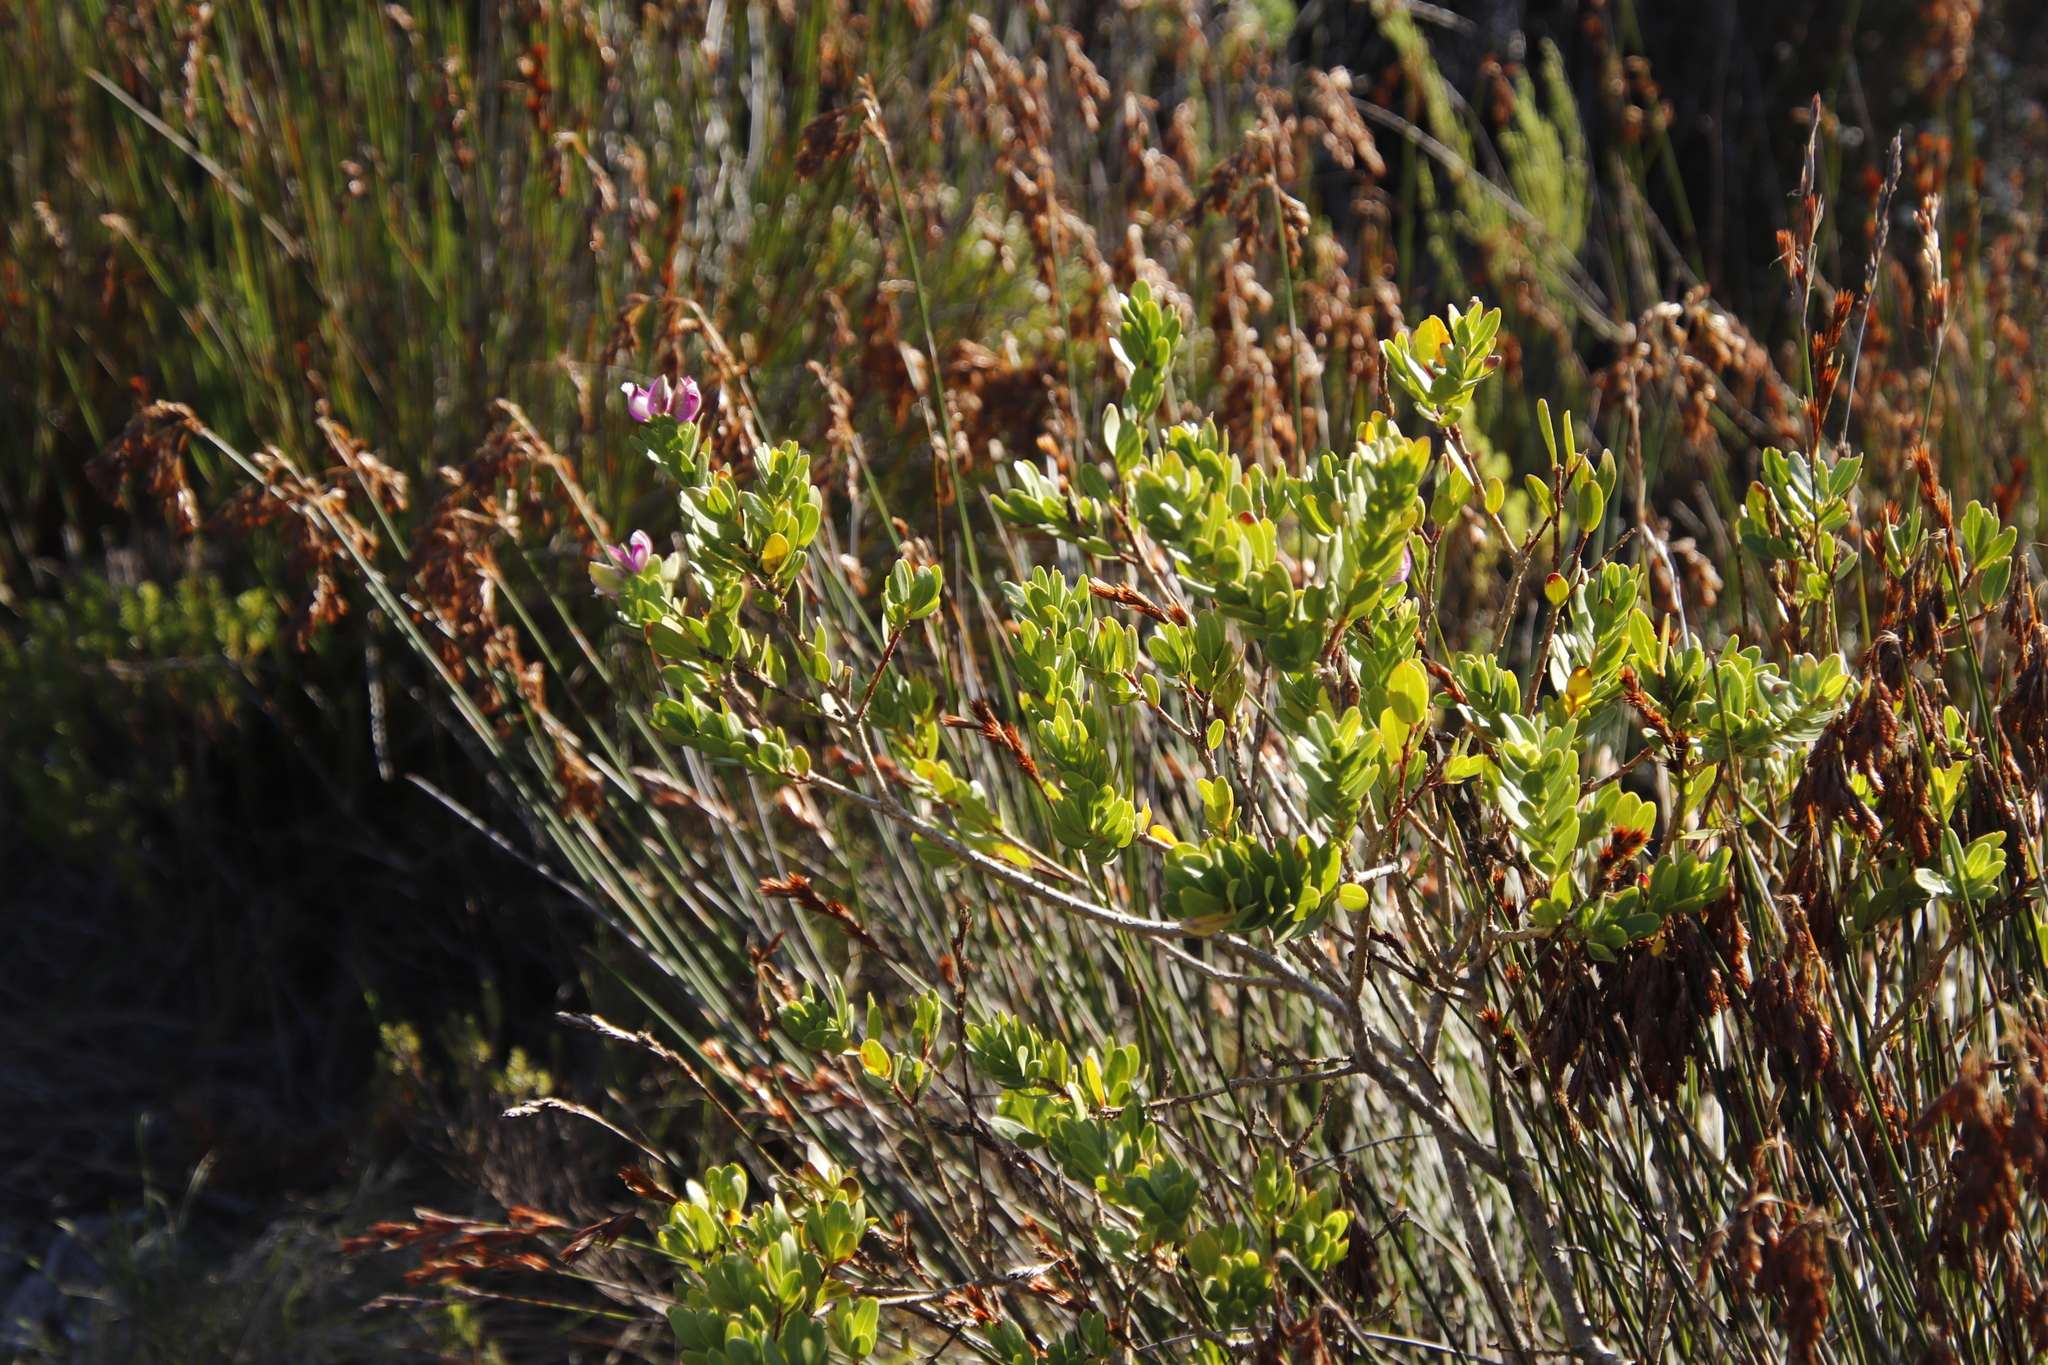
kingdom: Plantae
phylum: Tracheophyta
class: Magnoliopsida
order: Fabales
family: Polygalaceae
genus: Polygala
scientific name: Polygala myrtifolia
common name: Myrtle-leaf milkwort
